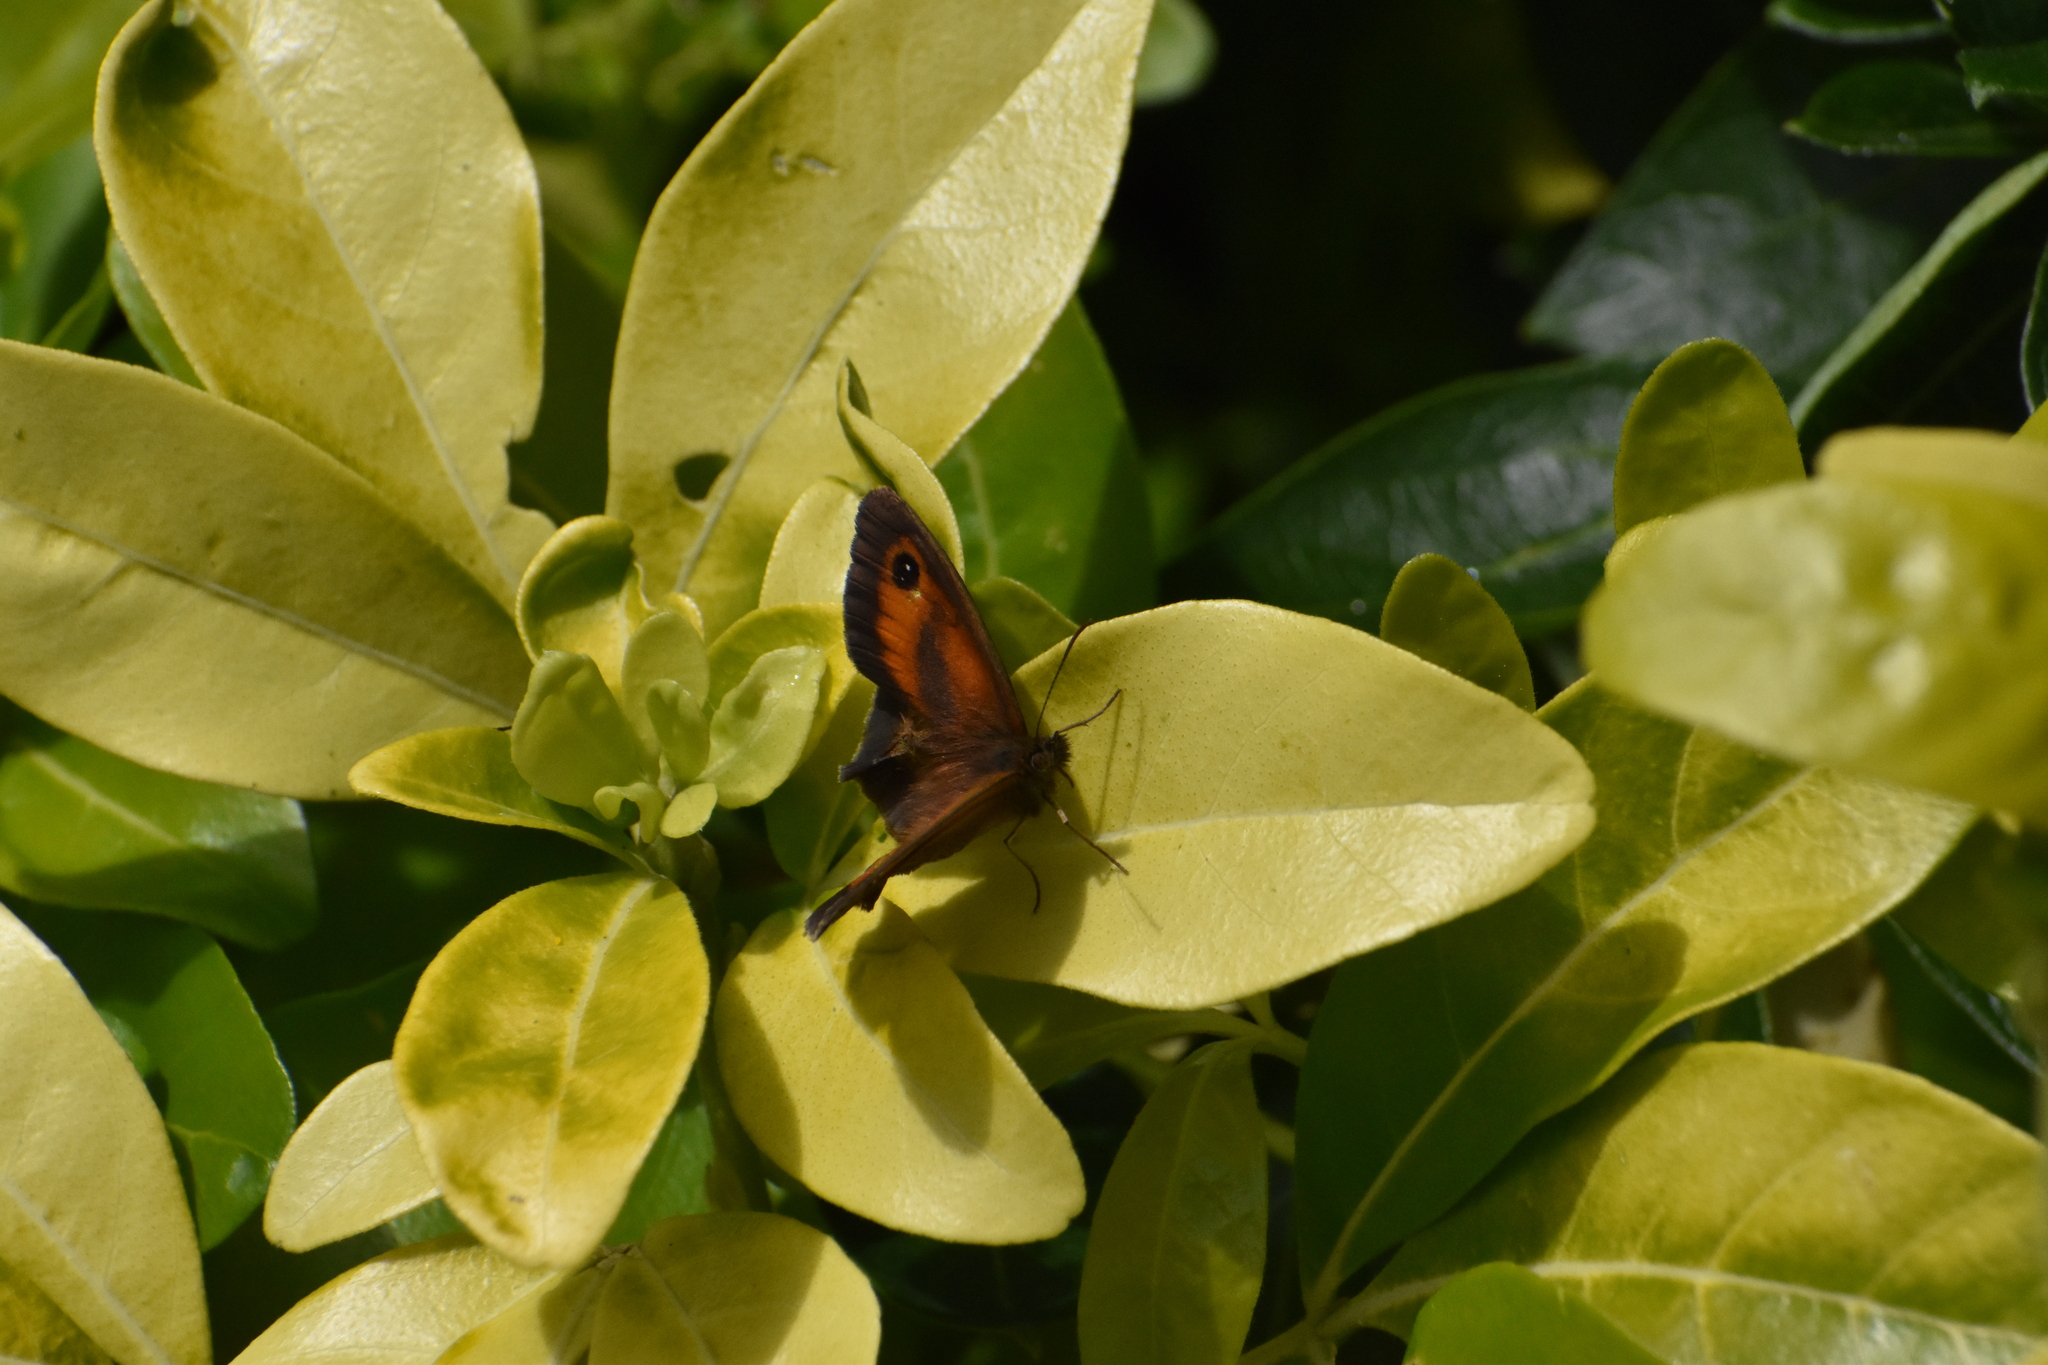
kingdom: Animalia
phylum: Arthropoda
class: Insecta
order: Lepidoptera
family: Nymphalidae
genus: Pyronia
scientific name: Pyronia tithonus
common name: Gatekeeper
